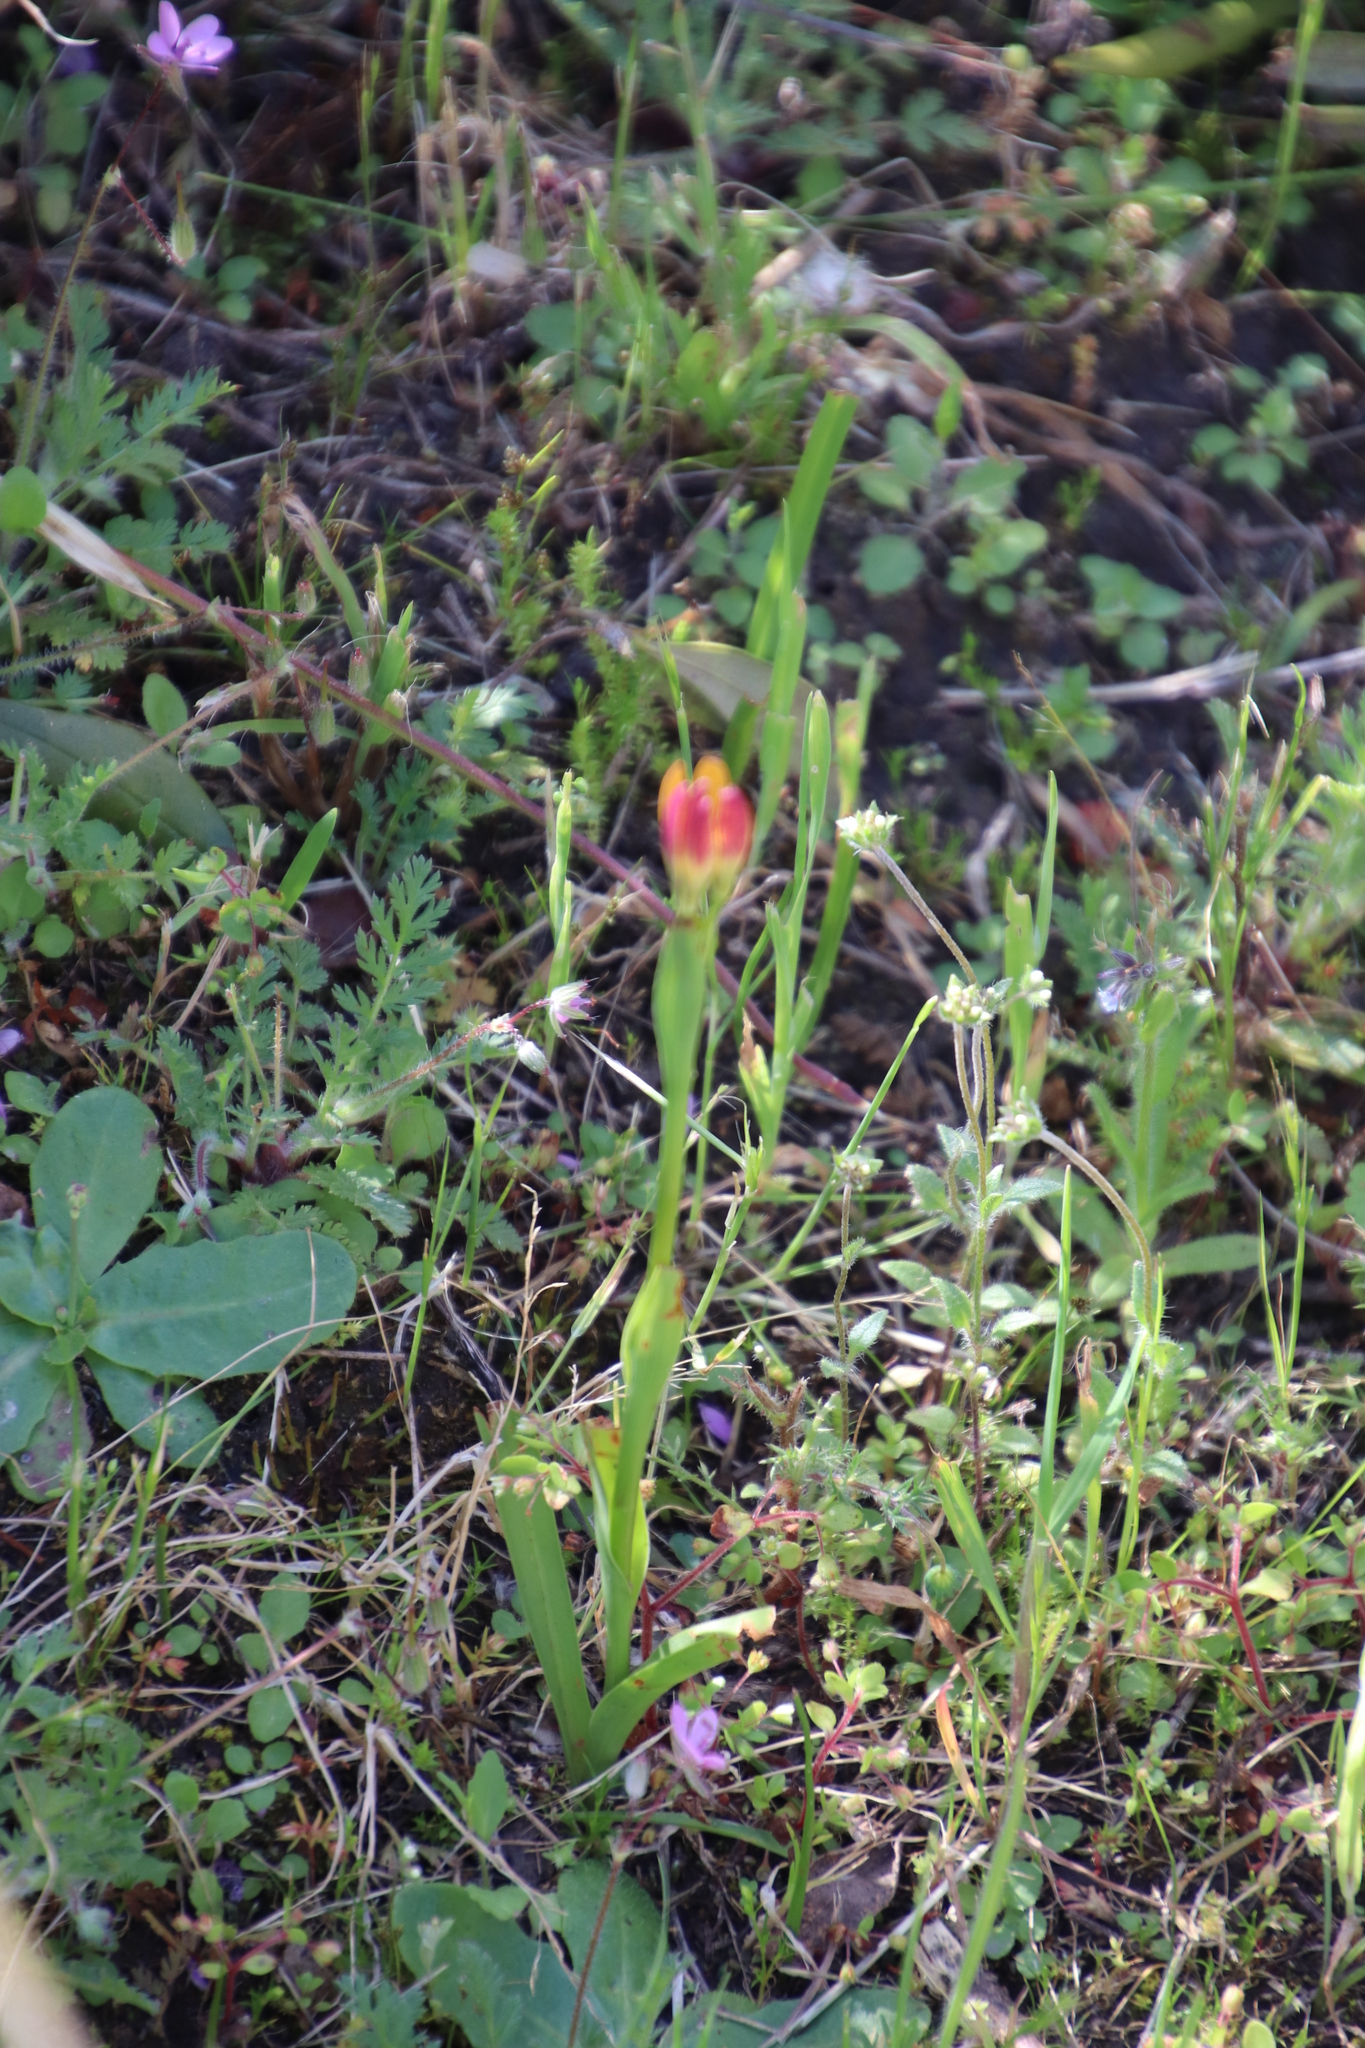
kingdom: Plantae
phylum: Tracheophyta
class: Liliopsida
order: Liliales
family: Colchicaceae
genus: Baeometra
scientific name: Baeometra uniflora
